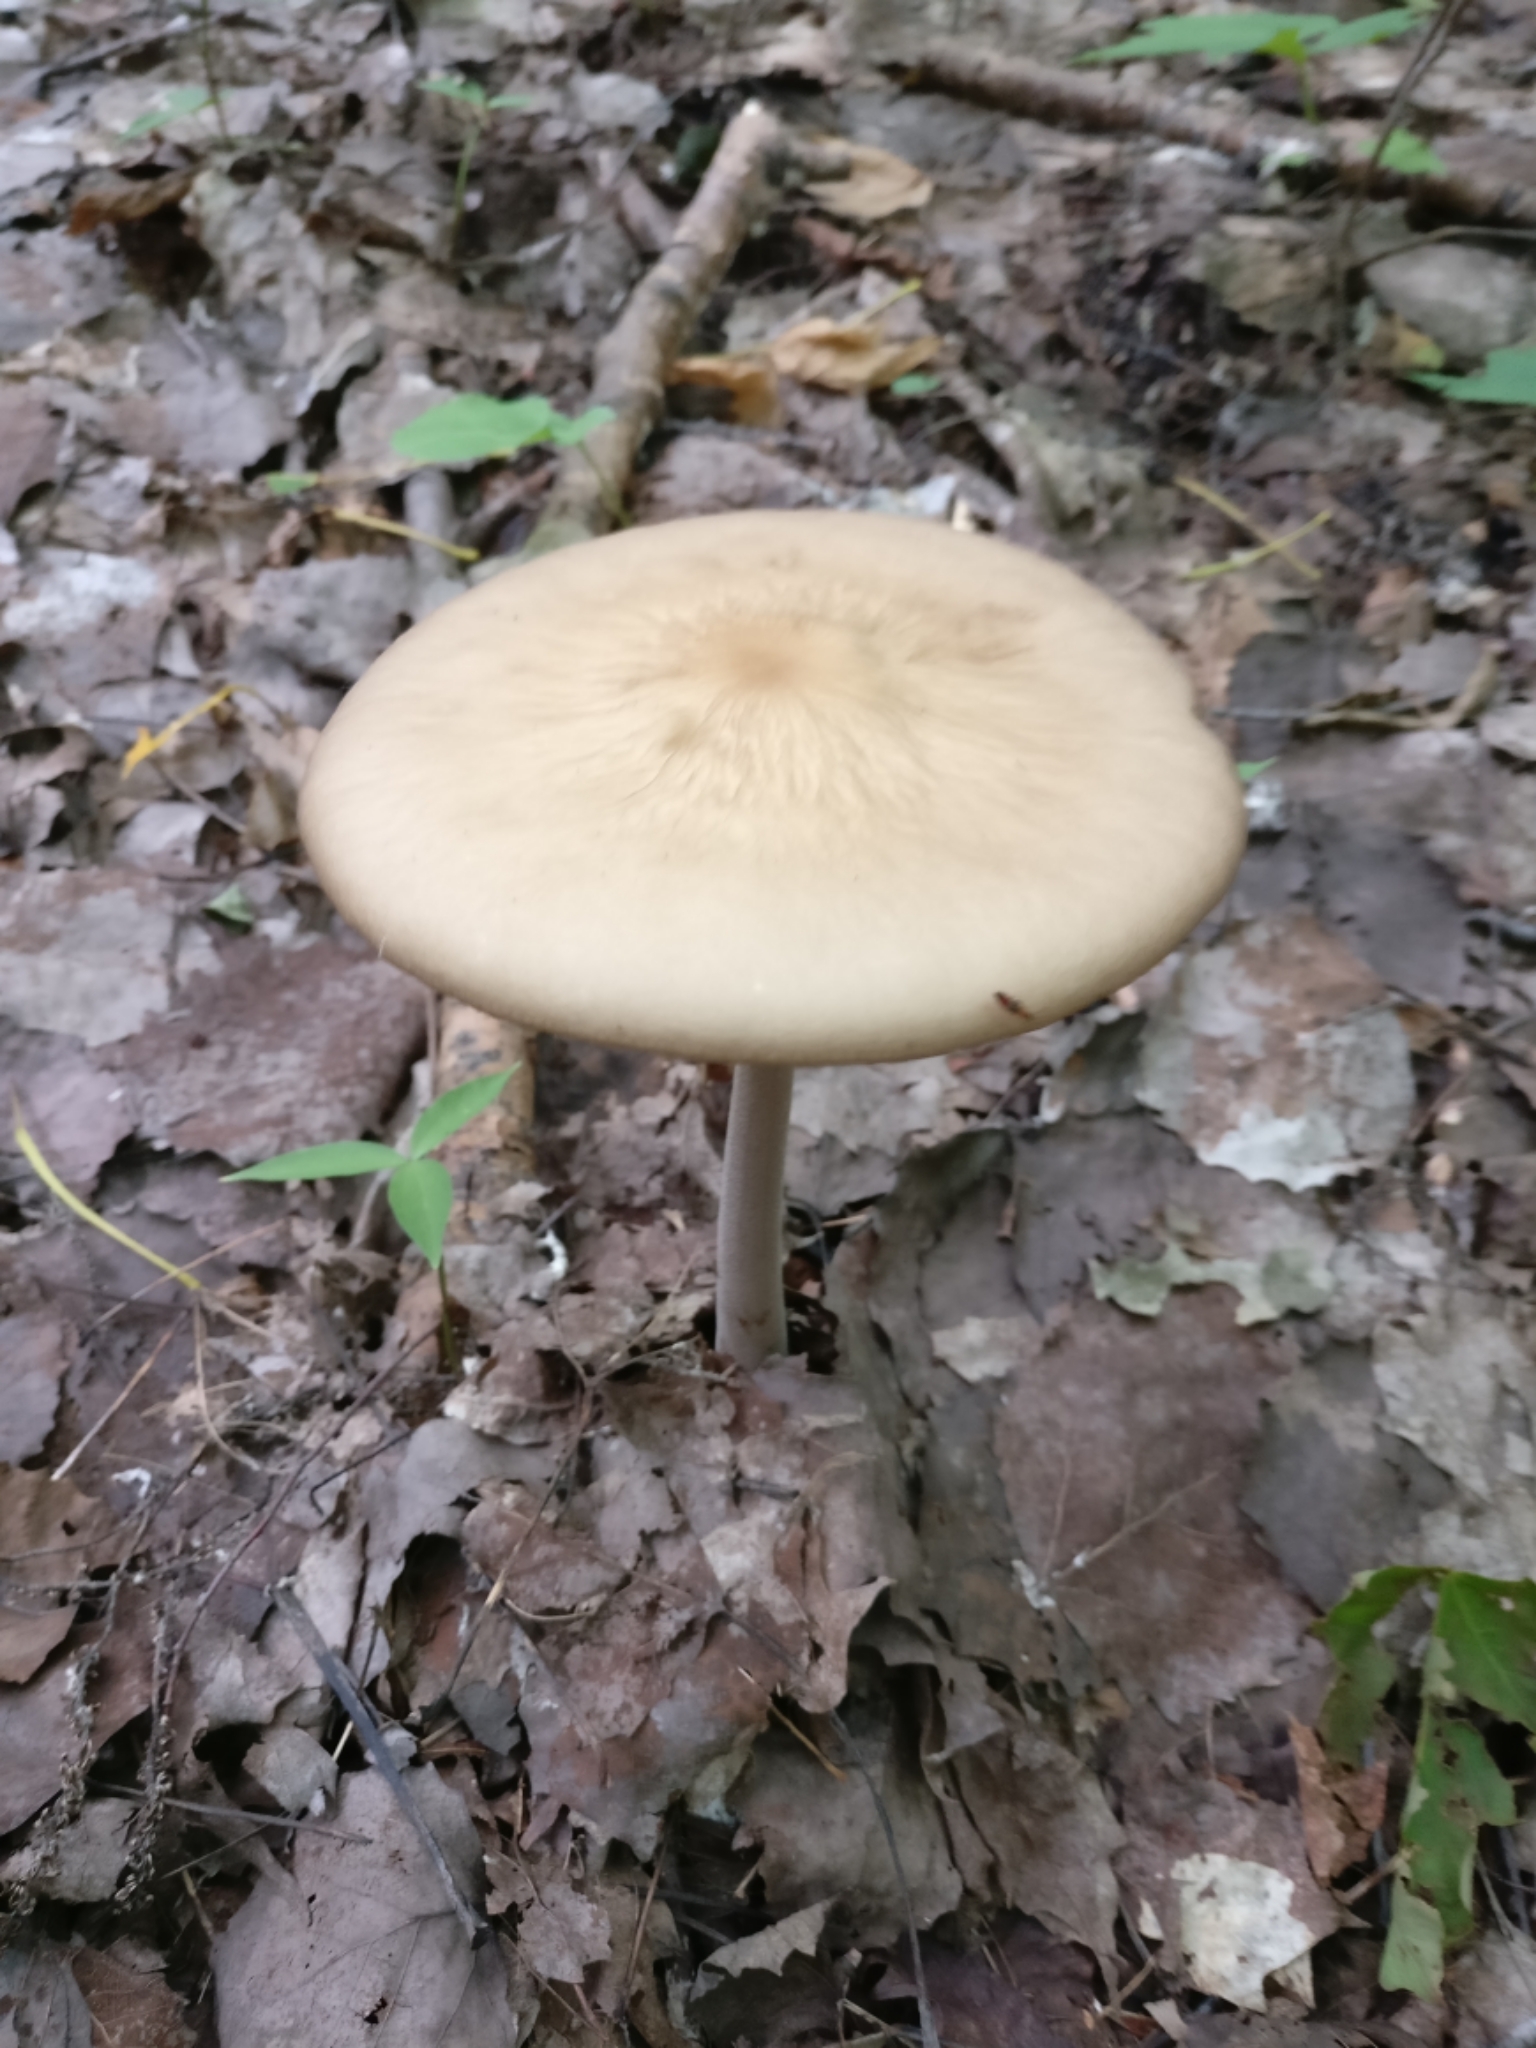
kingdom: Fungi
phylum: Basidiomycota
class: Agaricomycetes
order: Agaricales
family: Physalacriaceae
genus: Hymenopellis
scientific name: Hymenopellis furfuracea
